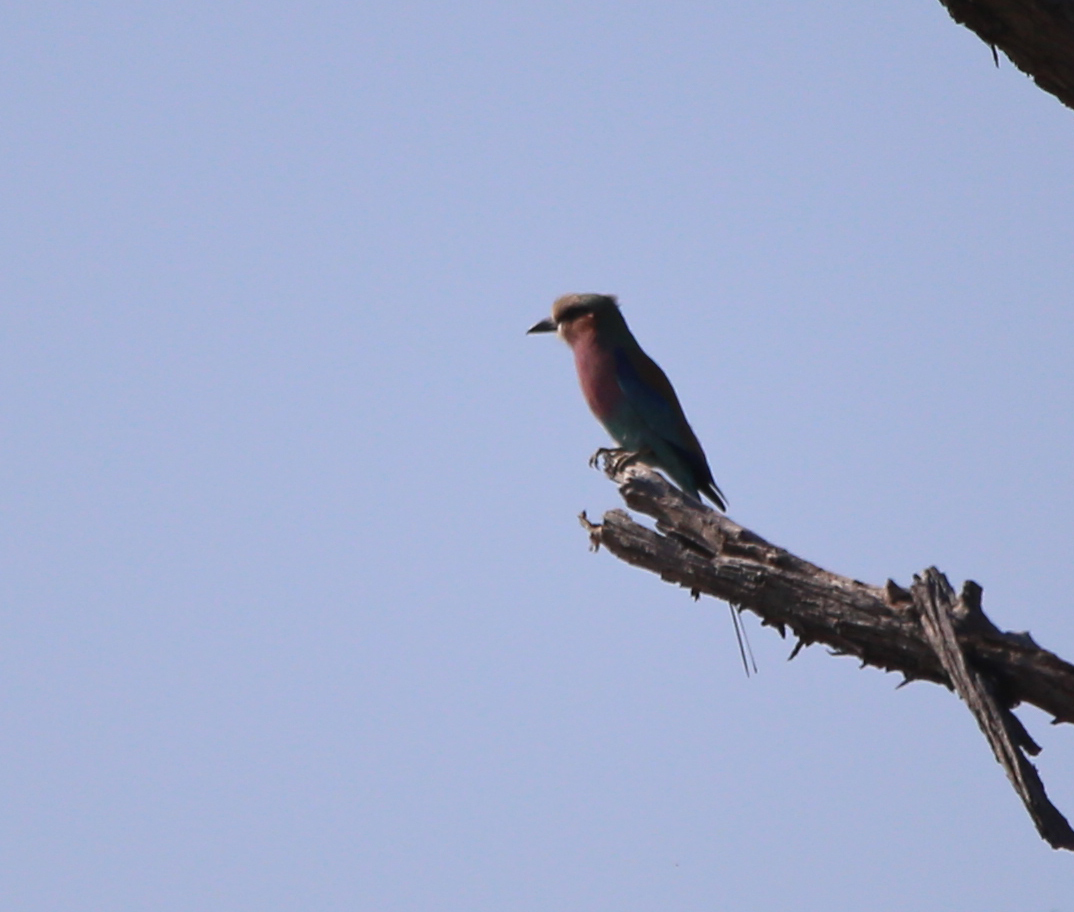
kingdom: Animalia
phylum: Chordata
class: Aves
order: Coraciiformes
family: Coraciidae
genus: Coracias
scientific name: Coracias caudatus
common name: Lilac-breasted roller
